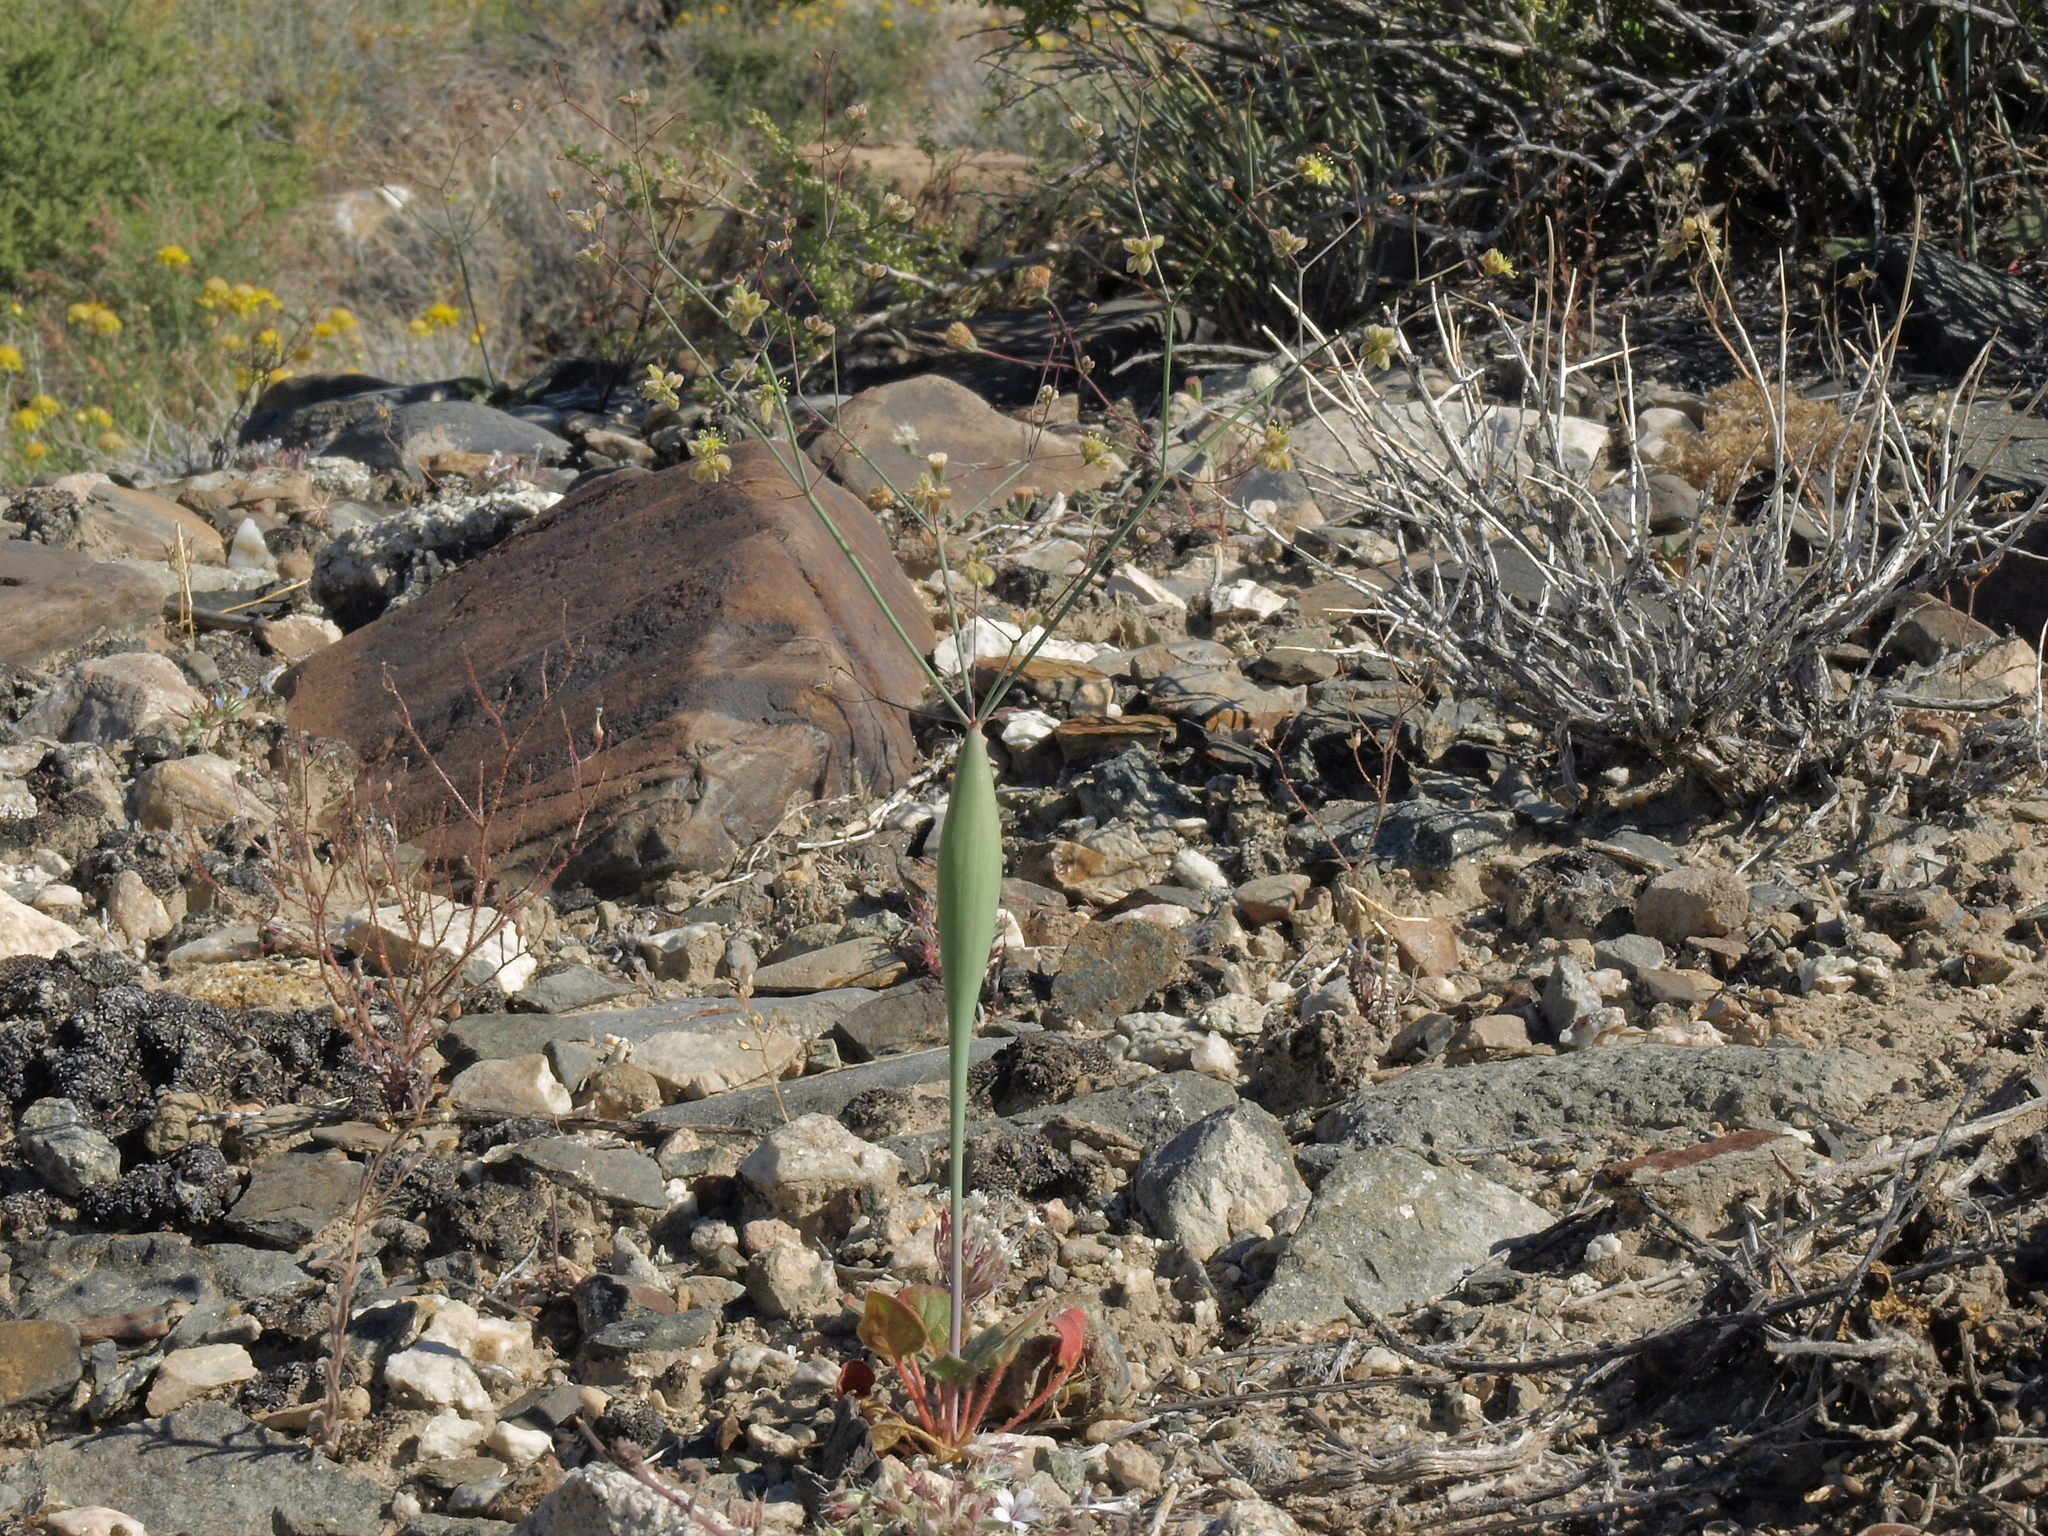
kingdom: Plantae
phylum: Tracheophyta
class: Magnoliopsida
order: Caryophyllales
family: Polygonaceae
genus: Eriogonum
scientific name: Eriogonum inflatum
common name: Desert trumpet
